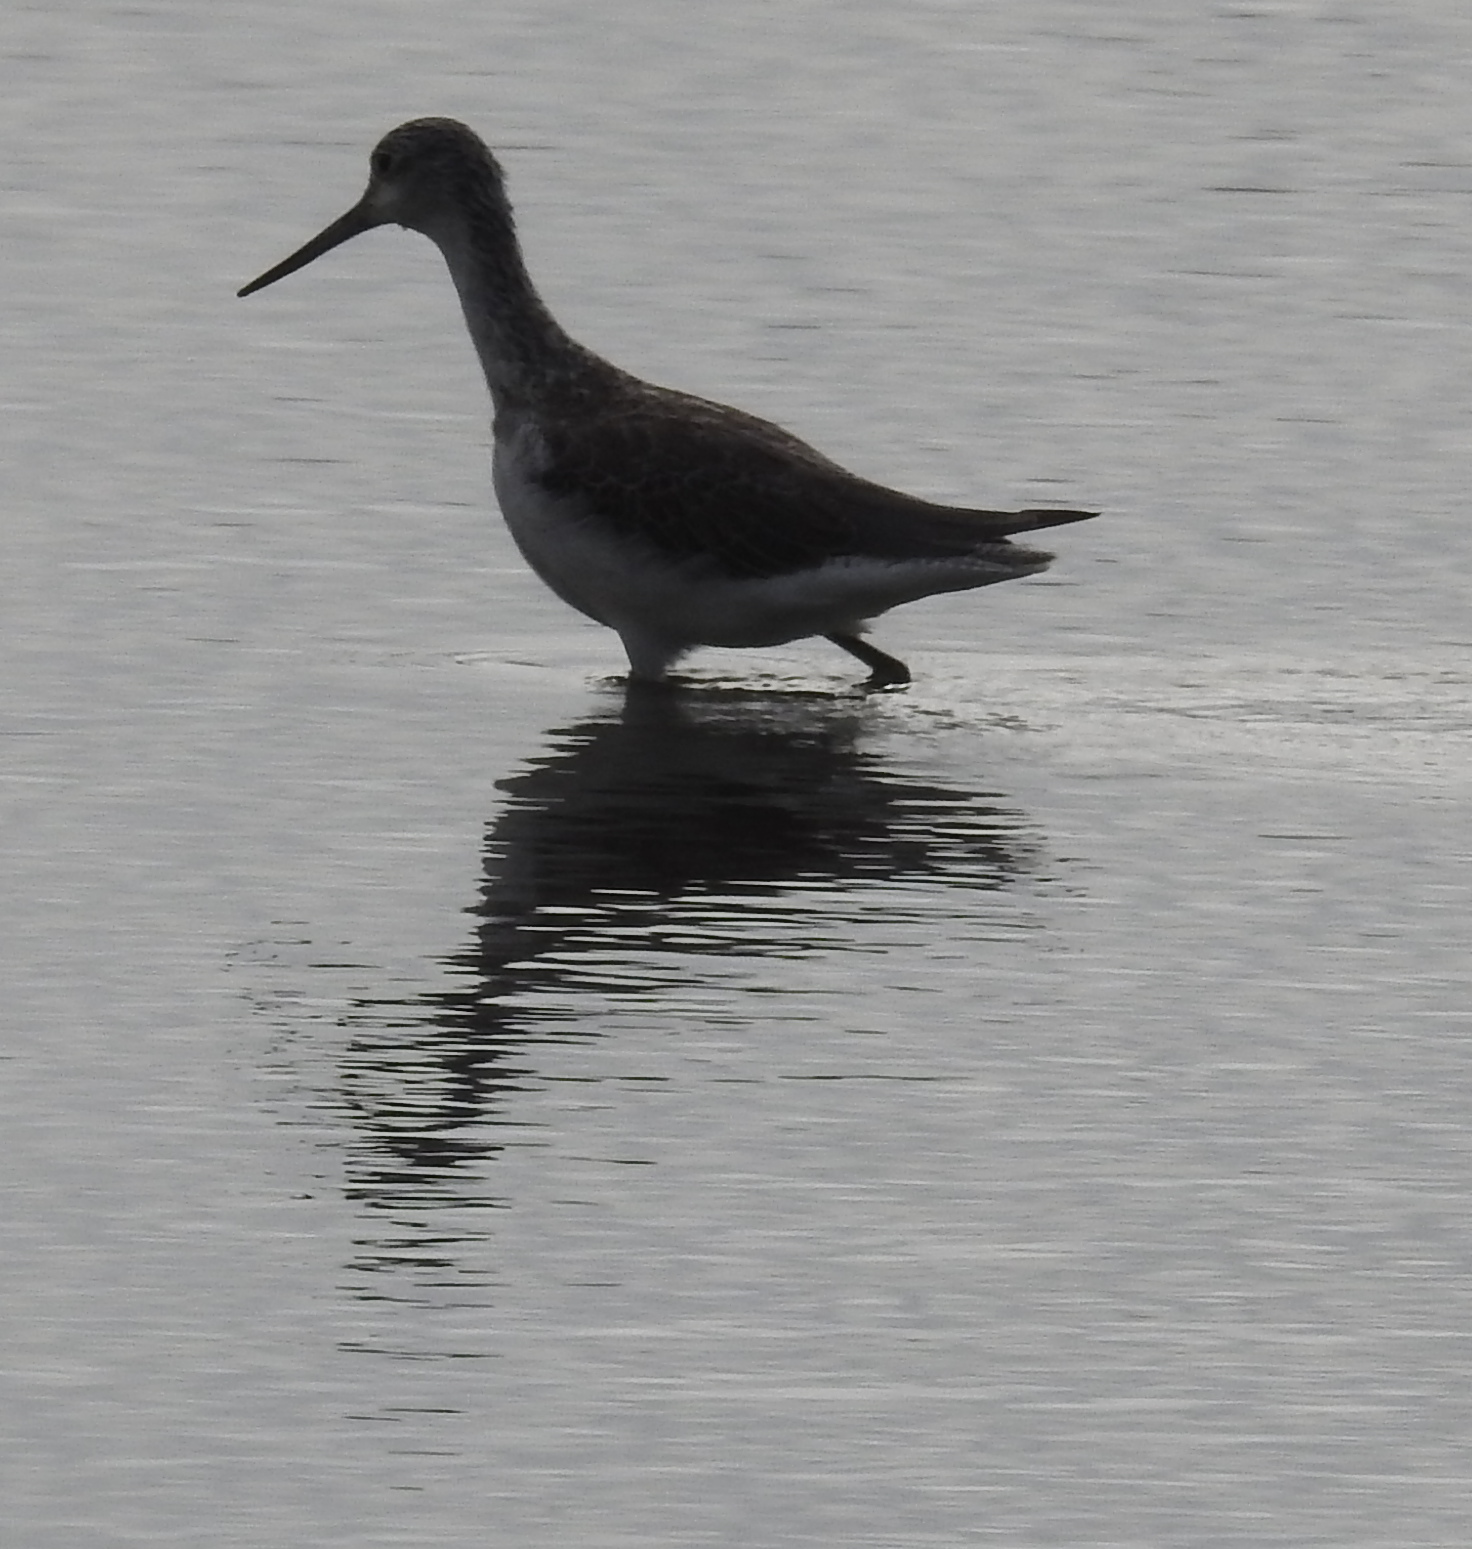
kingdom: Animalia
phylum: Chordata
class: Aves
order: Charadriiformes
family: Scolopacidae
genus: Tringa
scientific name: Tringa nebularia
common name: Common greenshank
